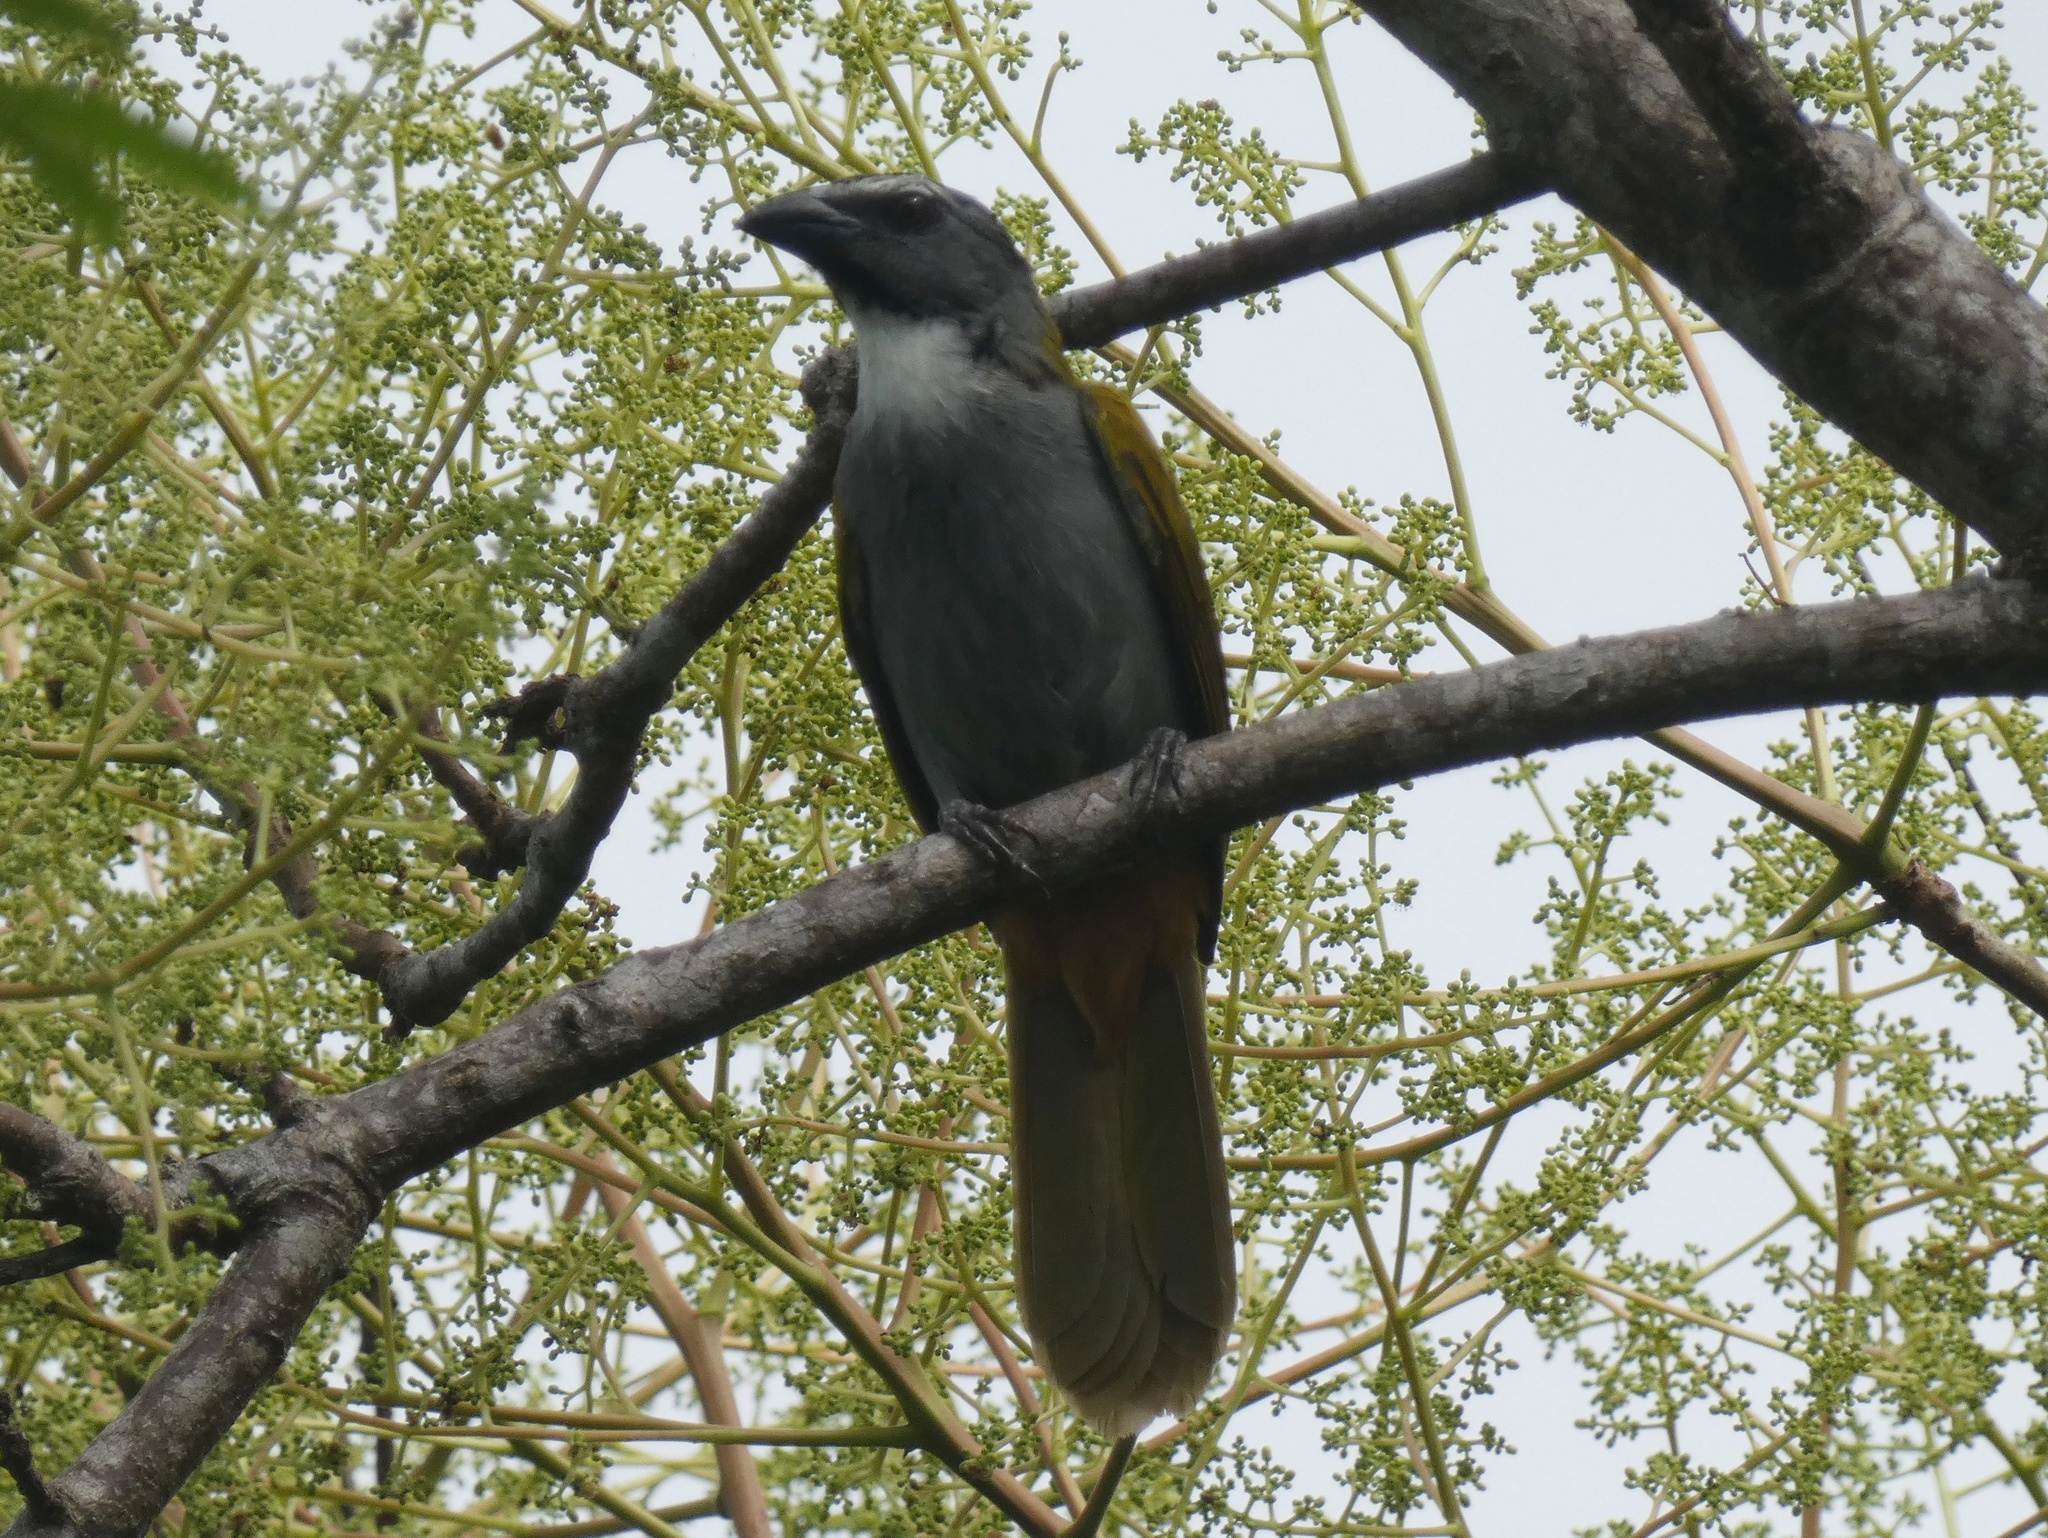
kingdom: Animalia
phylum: Chordata
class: Aves
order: Passeriformes
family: Thraupidae
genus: Saltator
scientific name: Saltator atriceps
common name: Black-headed saltator
